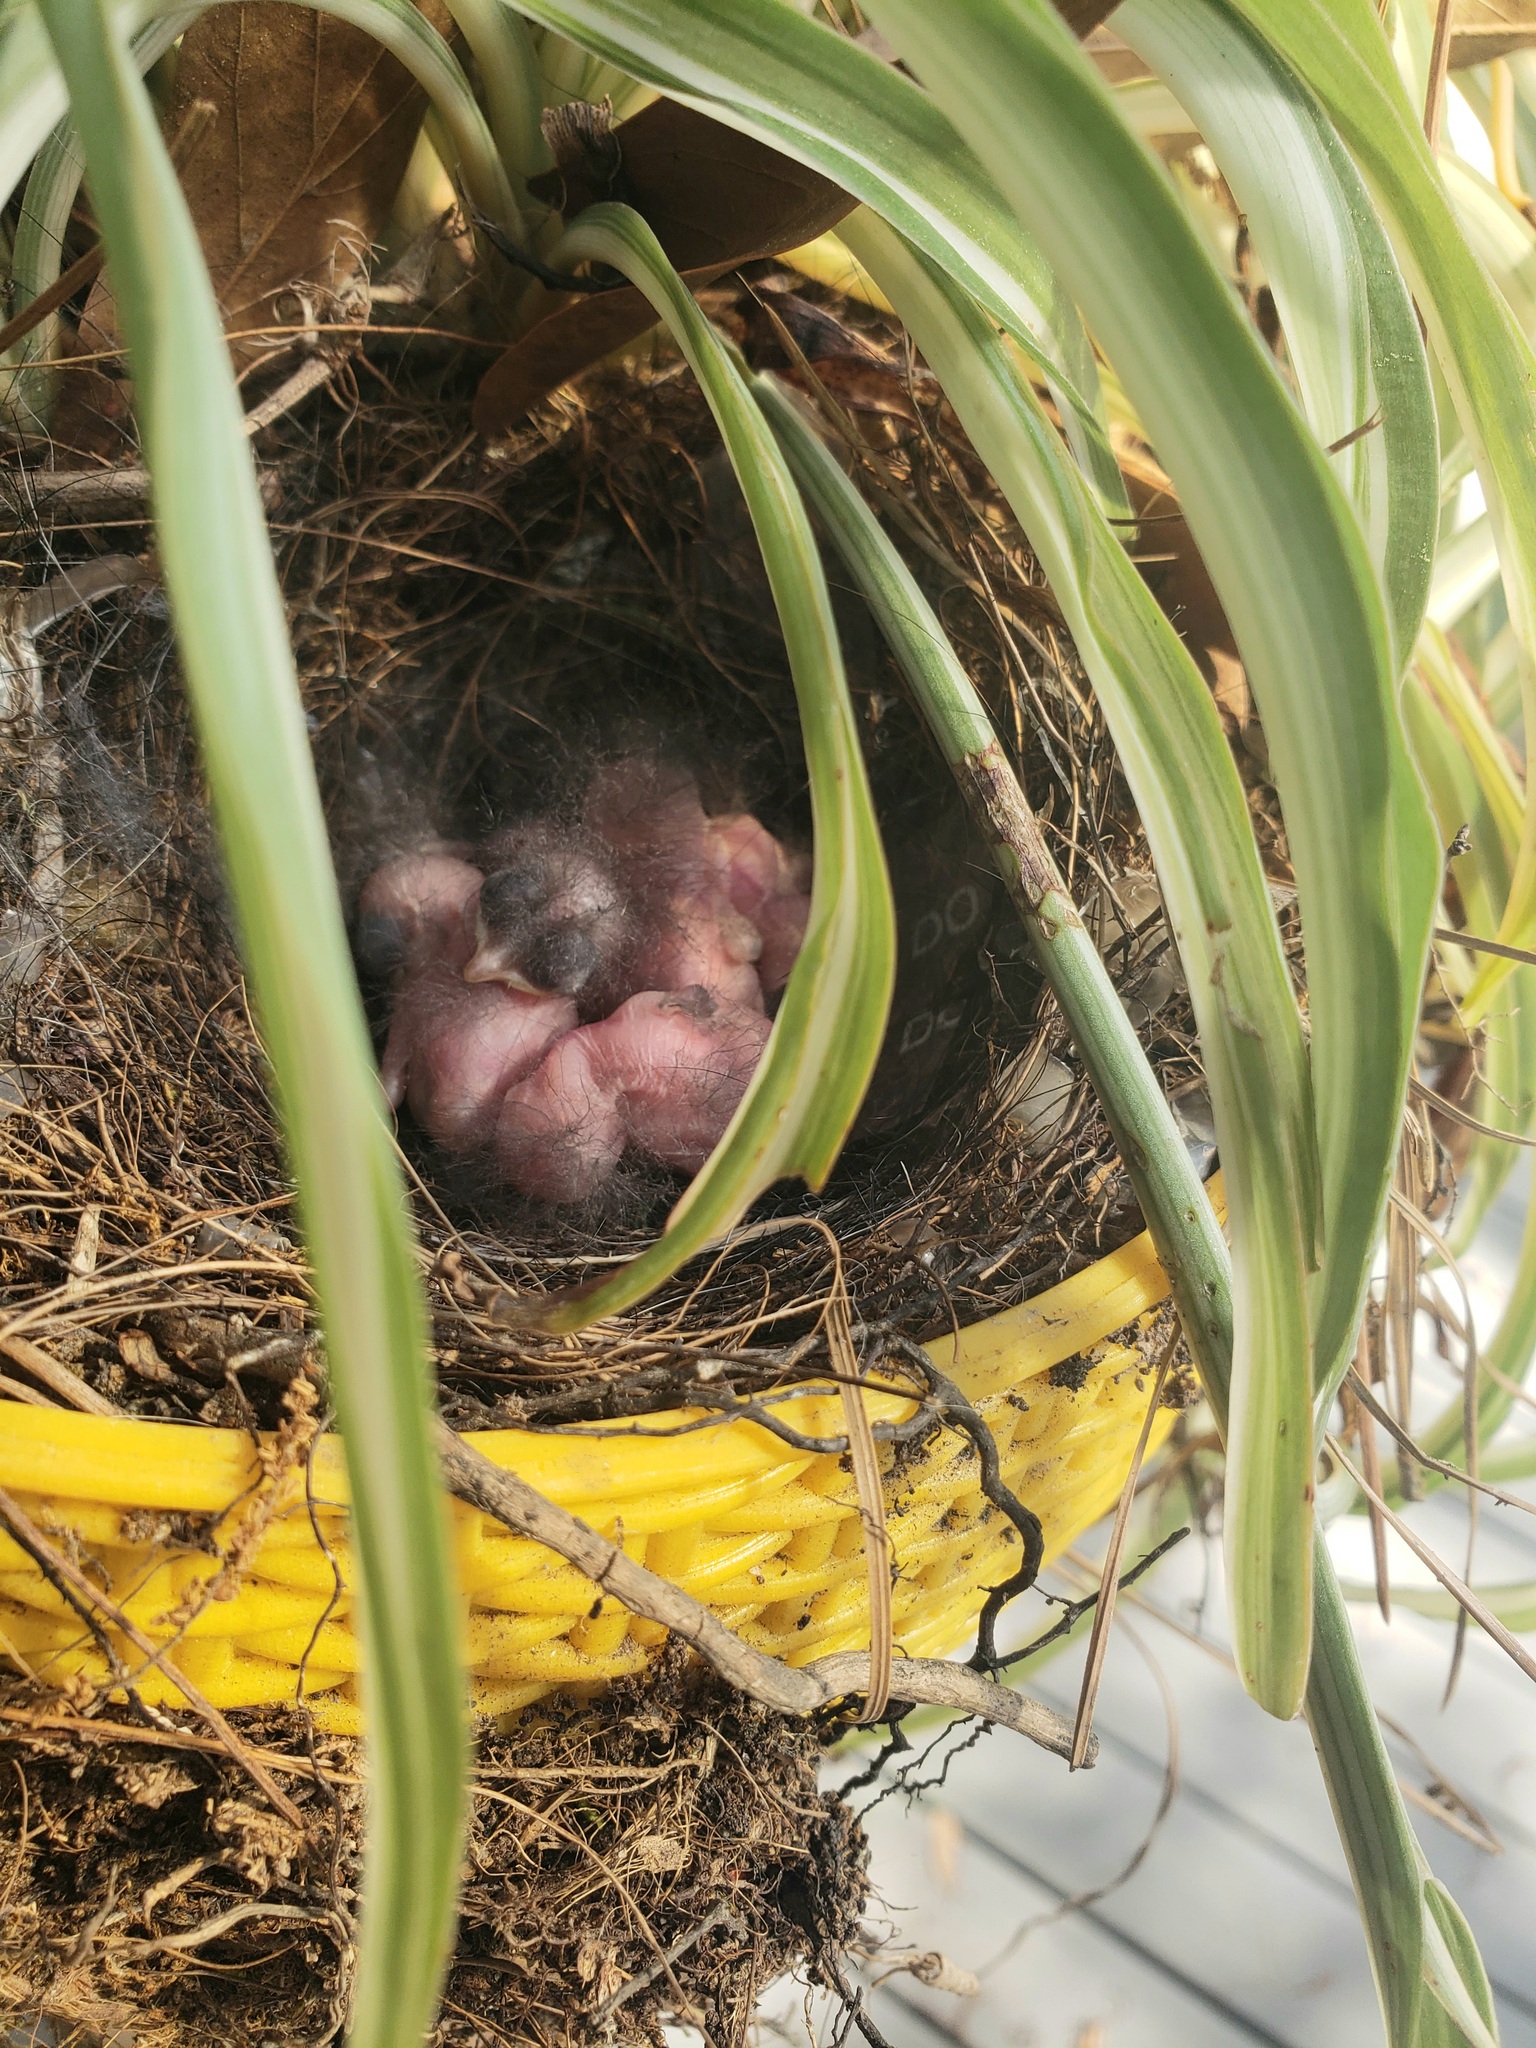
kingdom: Animalia
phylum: Chordata
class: Aves
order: Passeriformes
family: Troglodytidae
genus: Thryothorus
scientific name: Thryothorus ludovicianus
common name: Carolina wren
